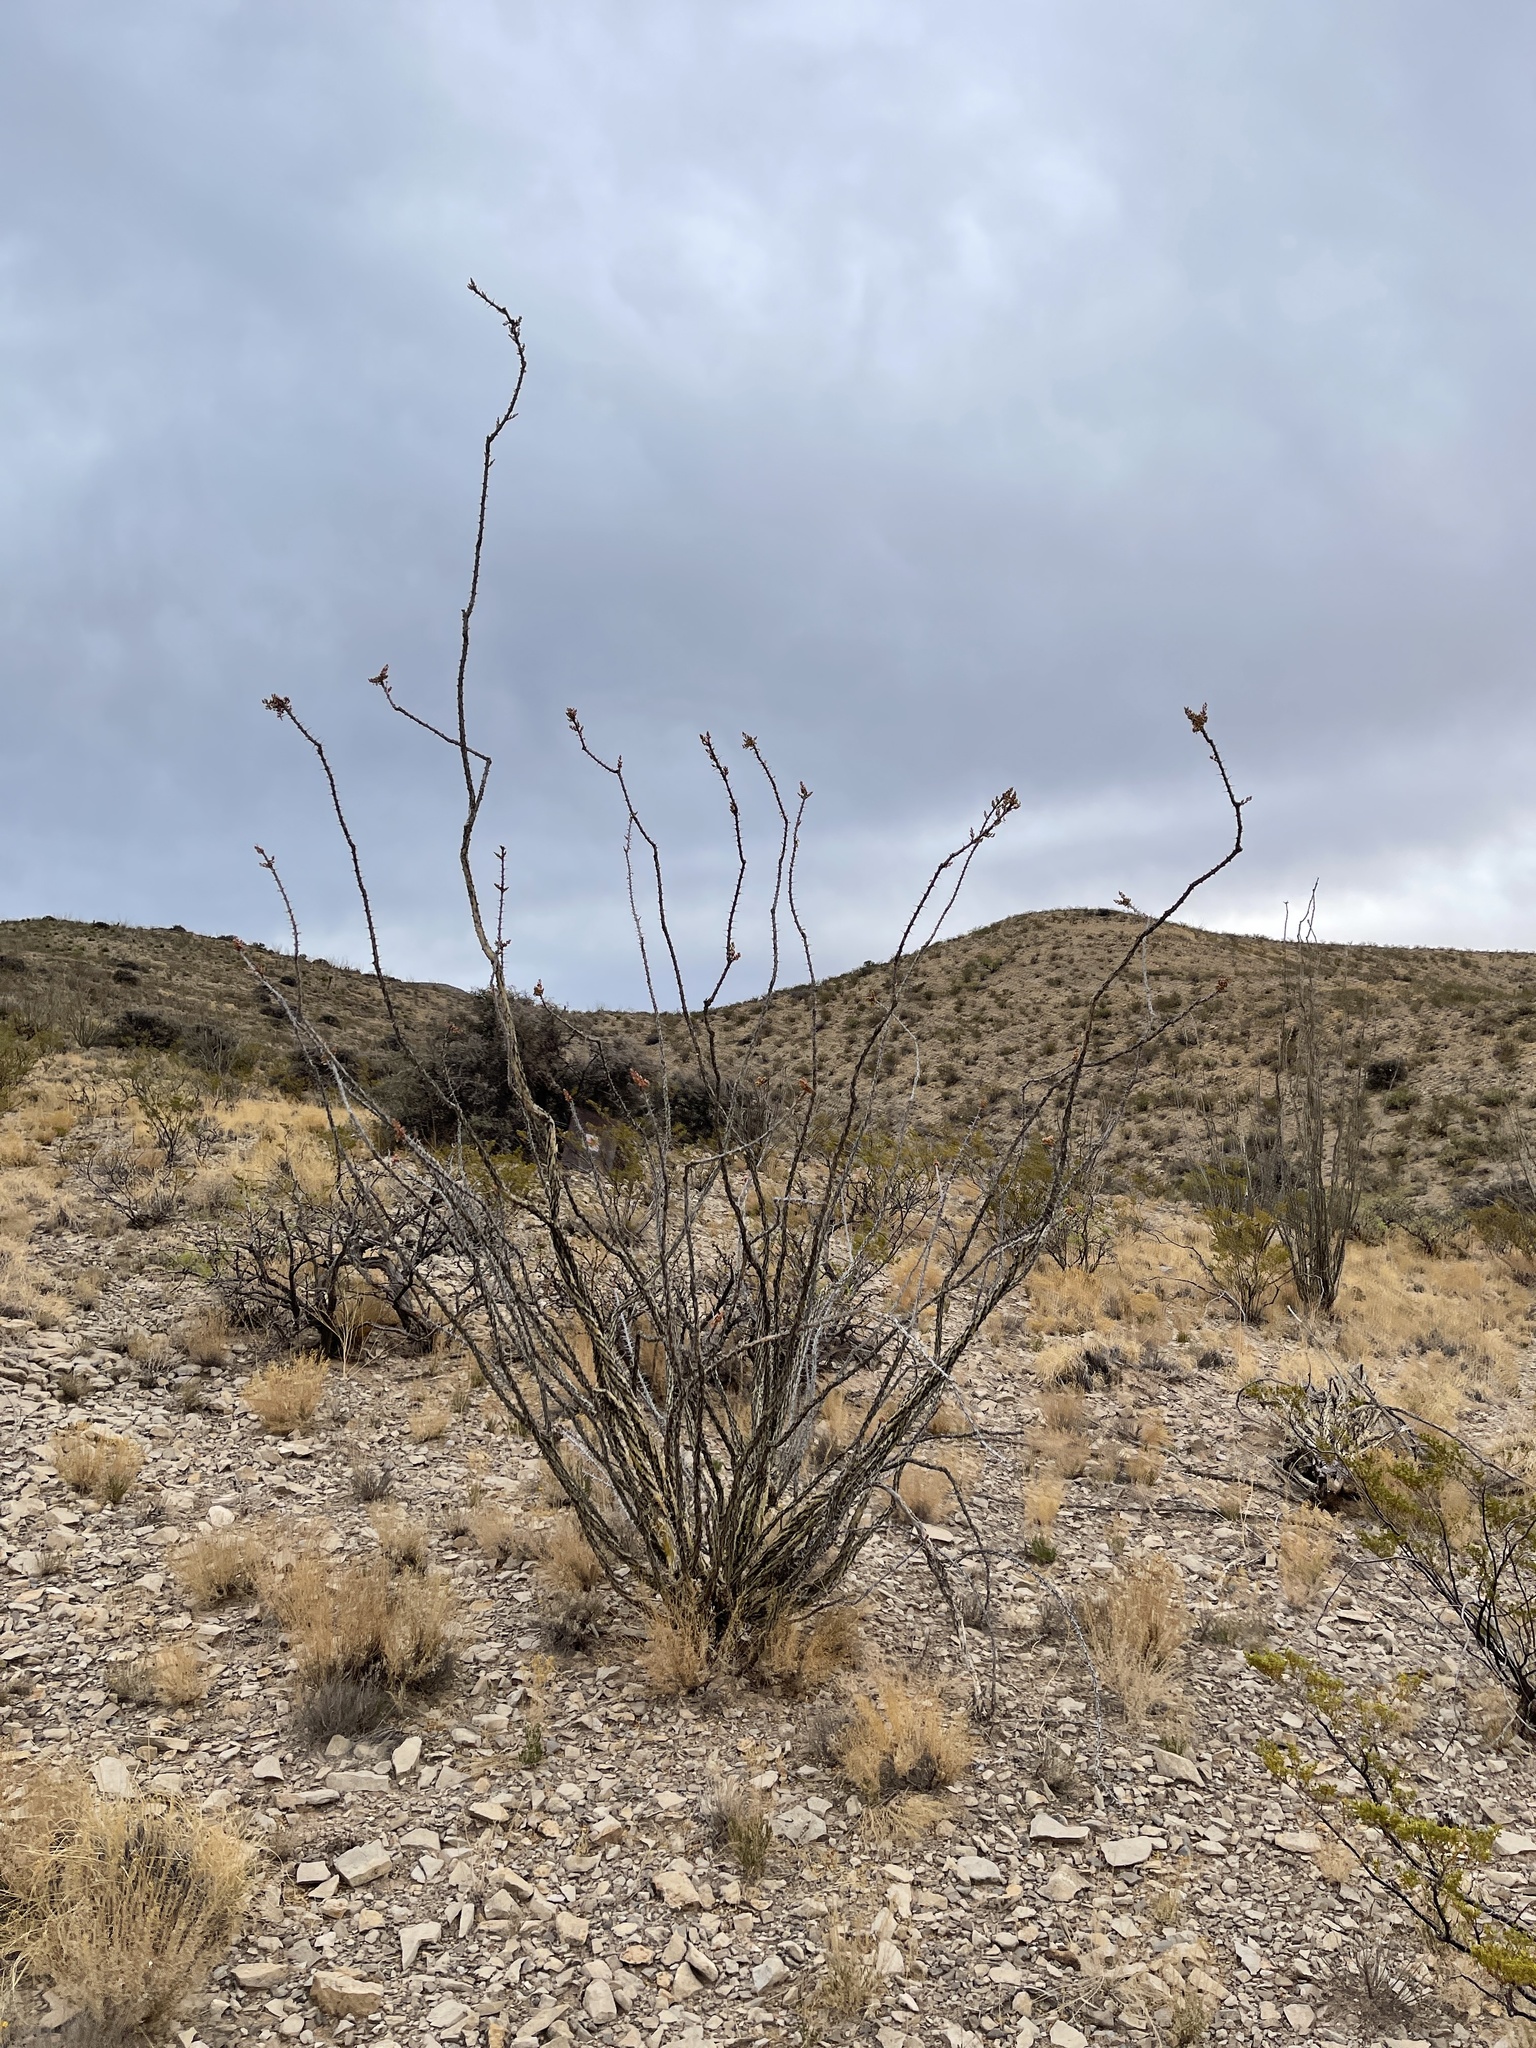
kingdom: Plantae
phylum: Tracheophyta
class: Magnoliopsida
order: Ericales
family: Fouquieriaceae
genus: Fouquieria
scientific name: Fouquieria splendens
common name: Vine-cactus
